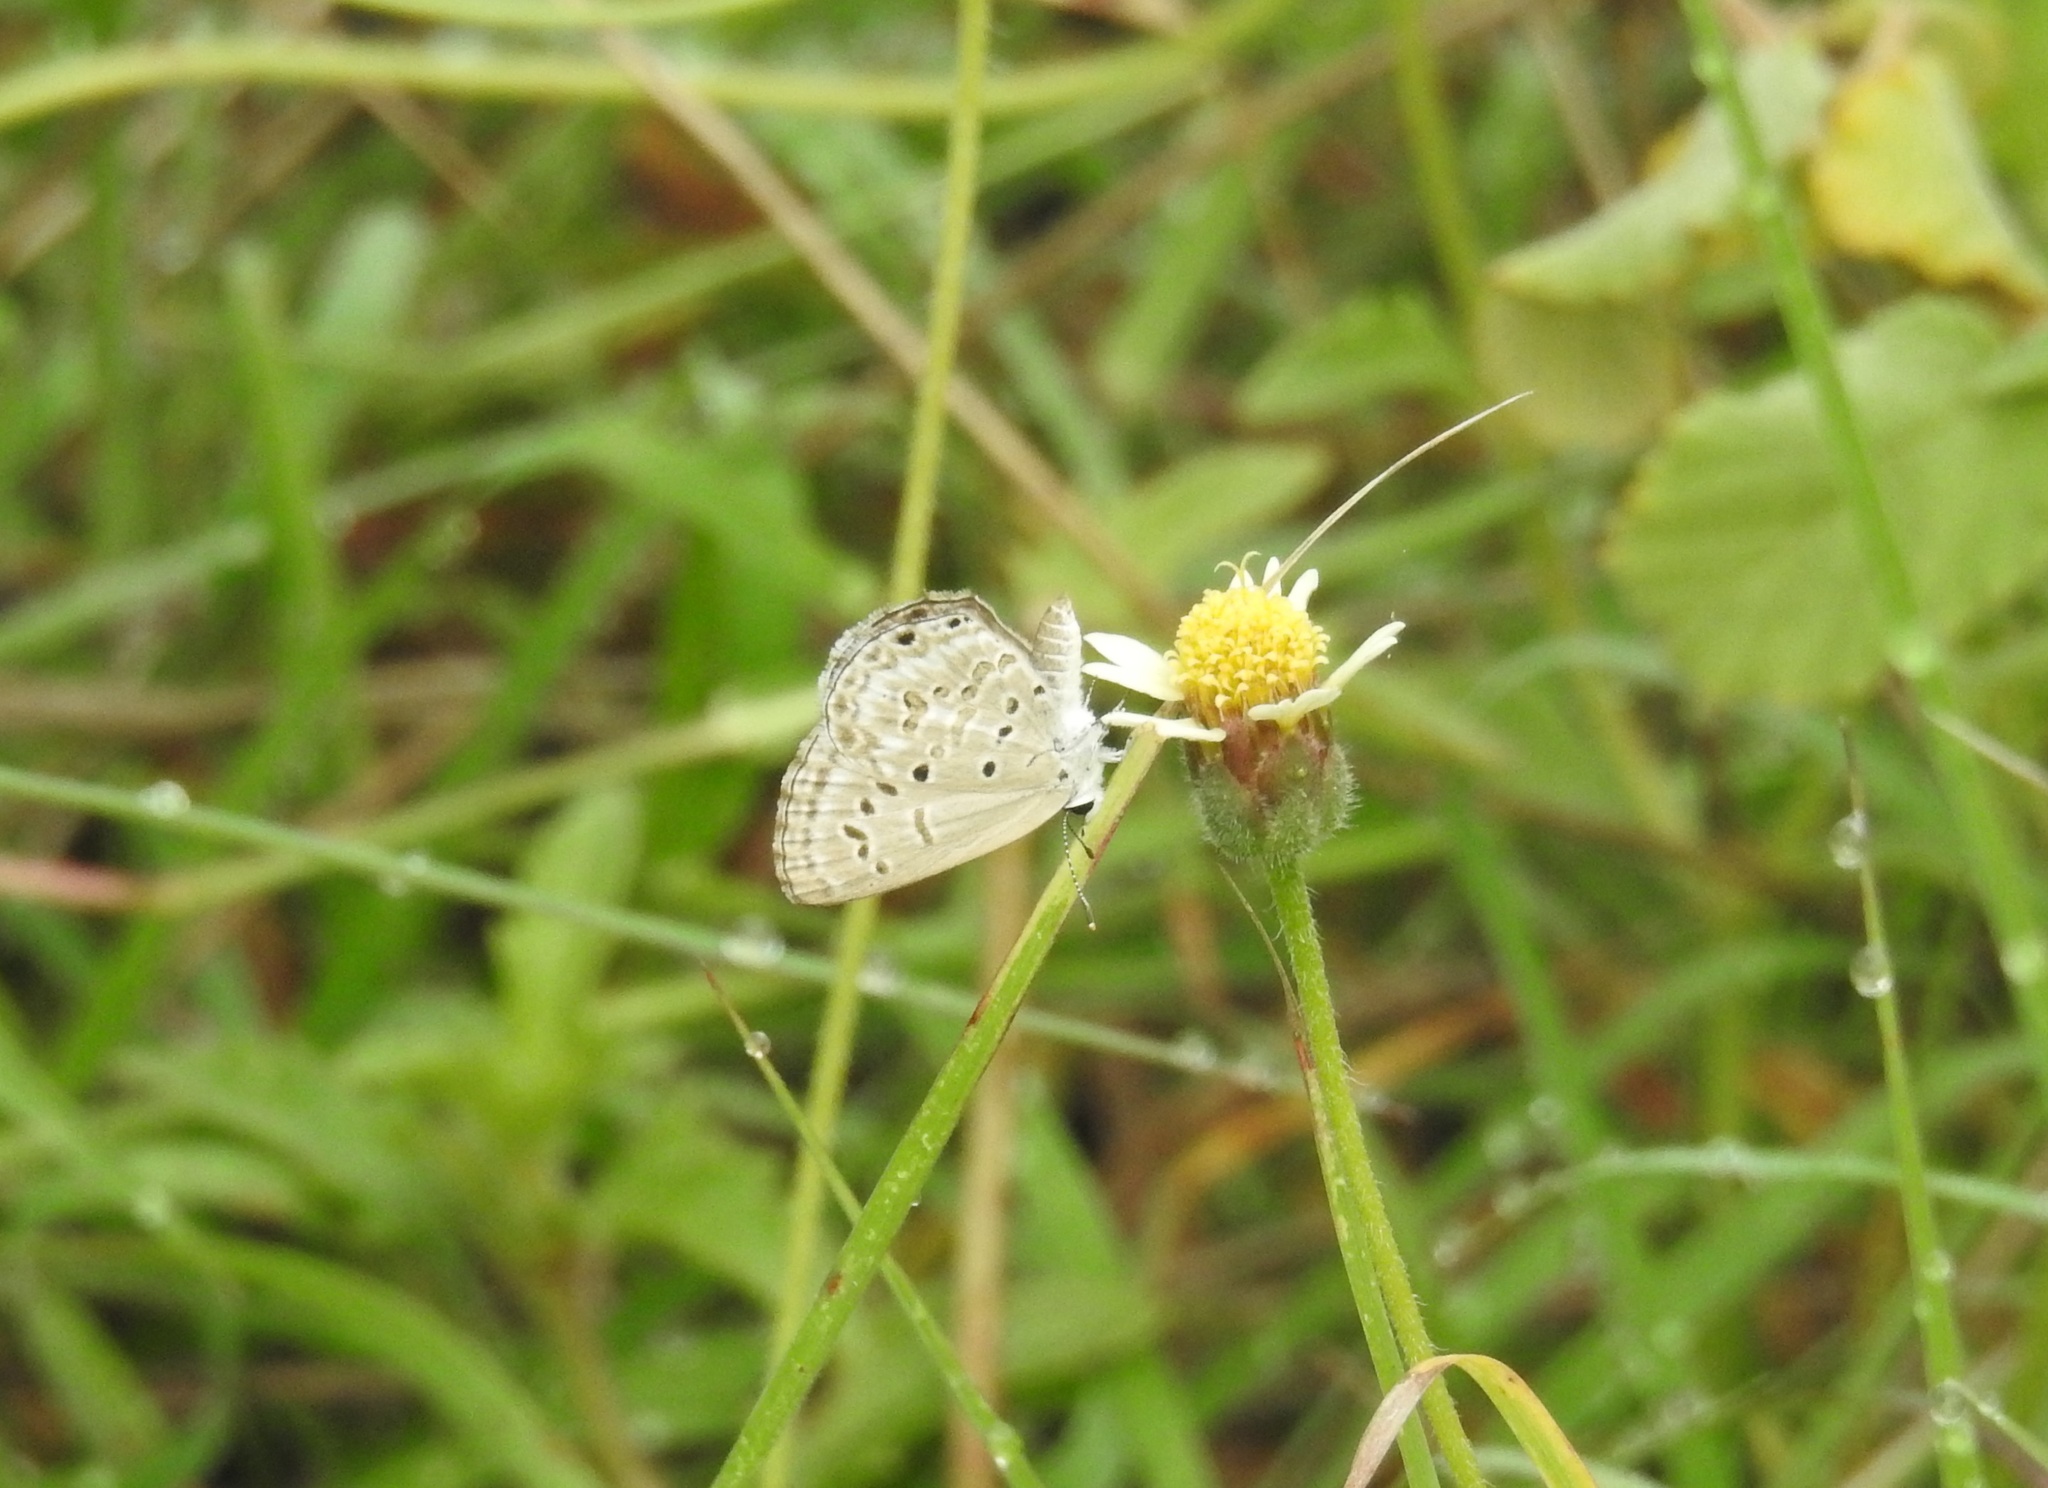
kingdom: Animalia
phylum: Arthropoda
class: Insecta
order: Lepidoptera
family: Lycaenidae
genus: Chilades
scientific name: Chilades laius
